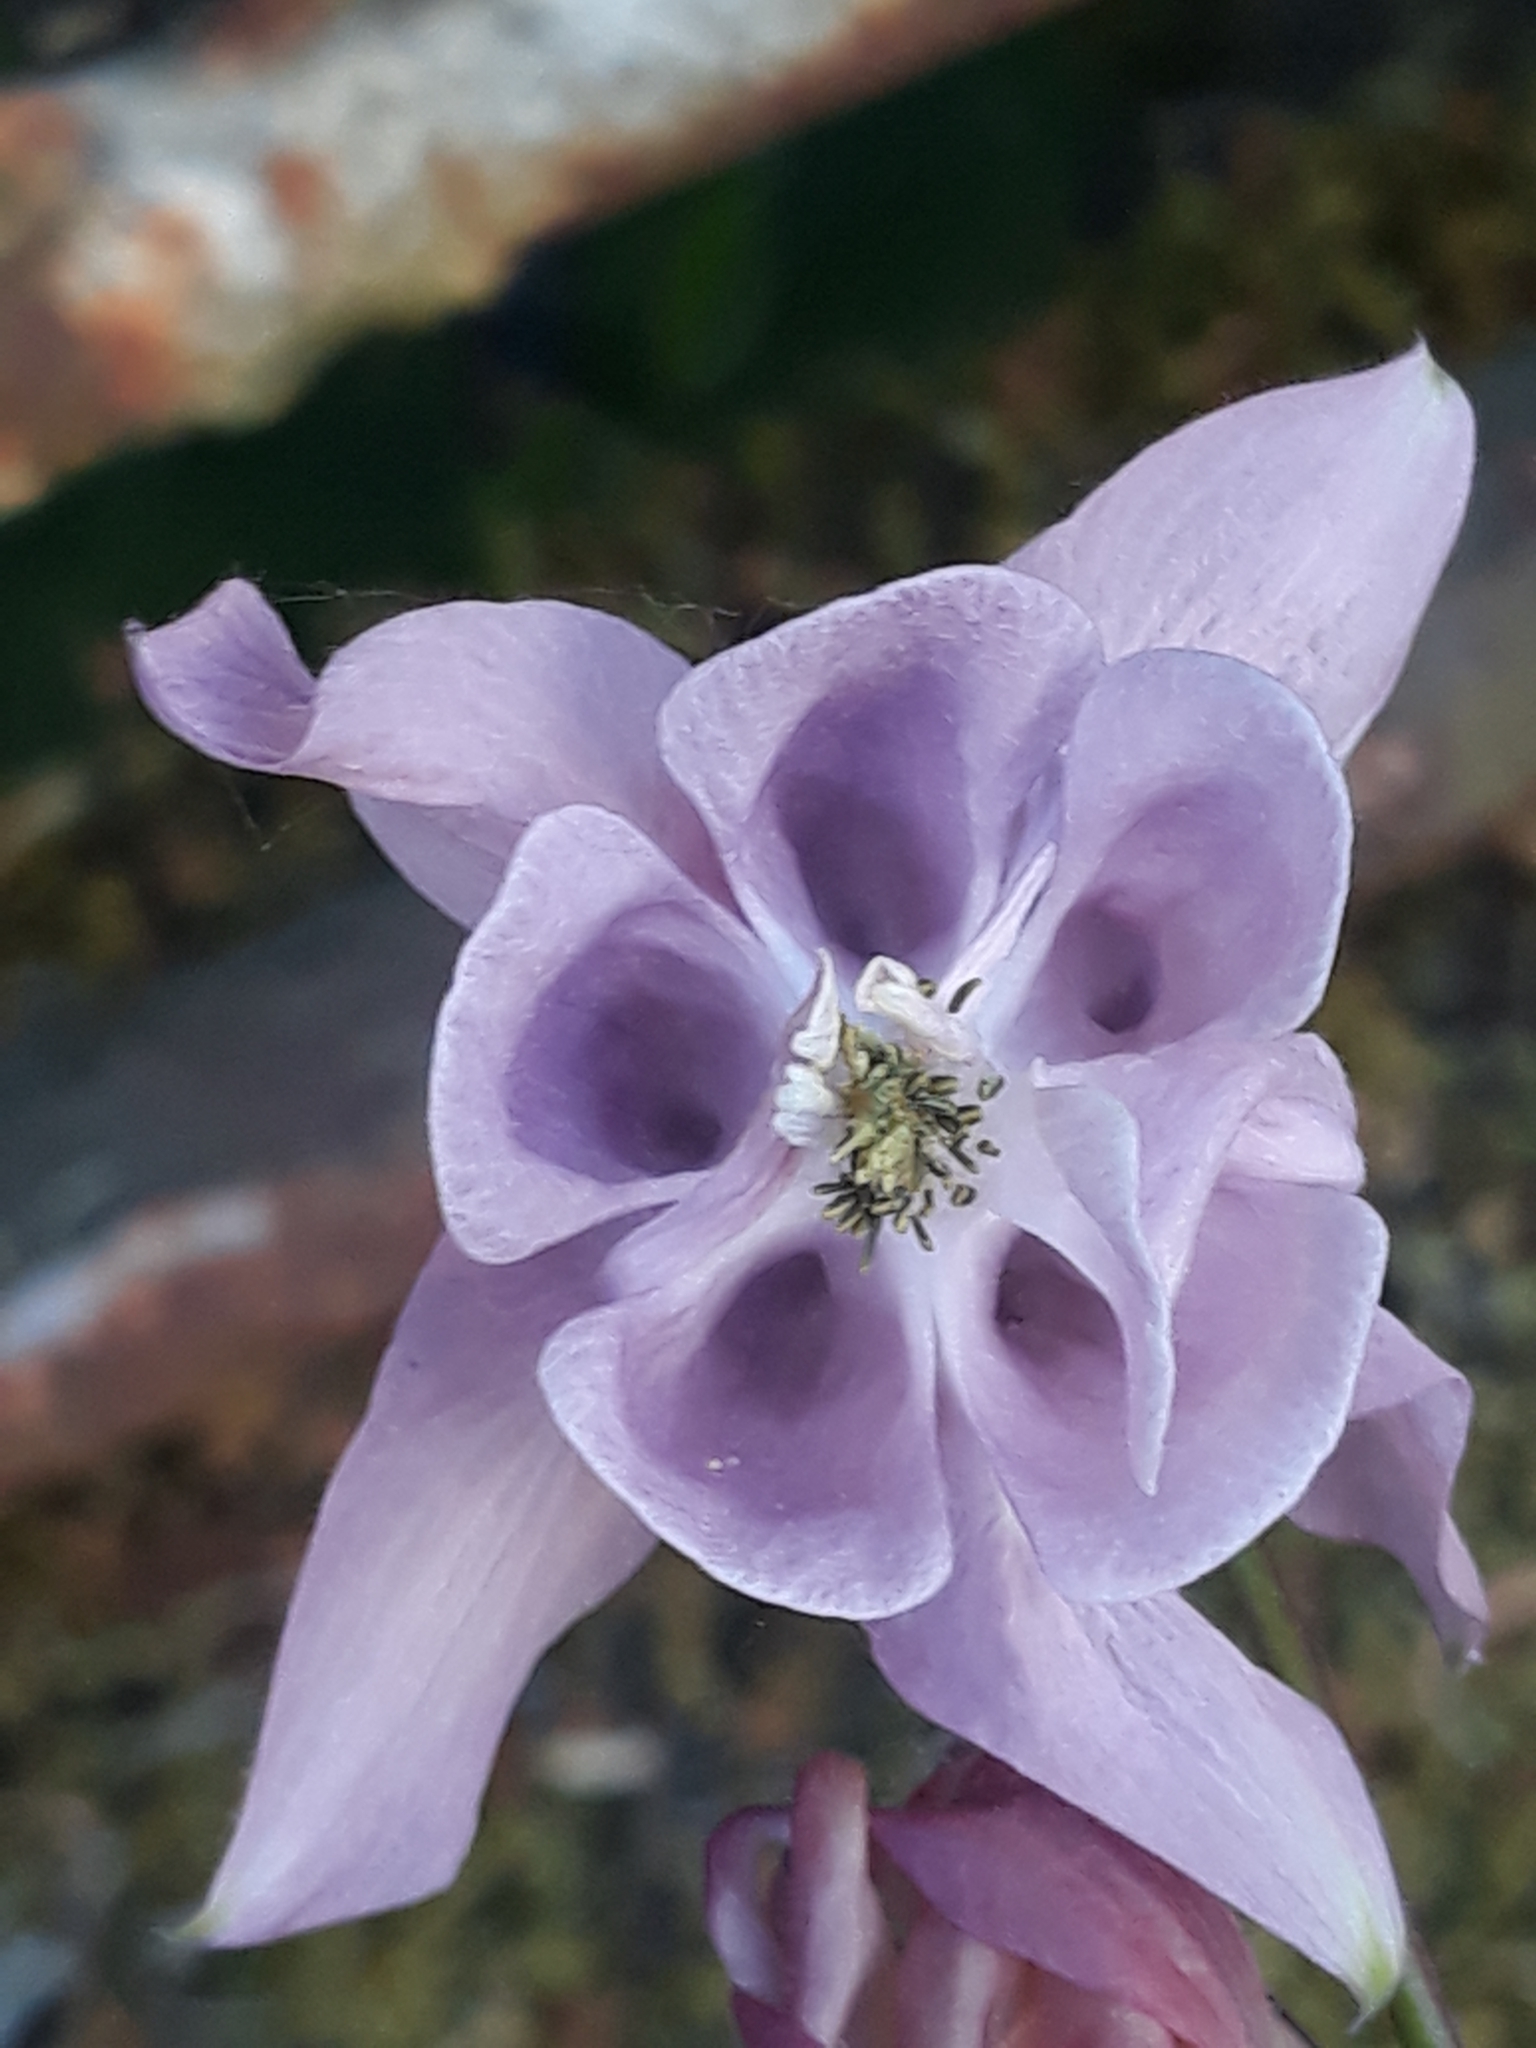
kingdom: Plantae
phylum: Tracheophyta
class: Magnoliopsida
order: Ranunculales
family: Ranunculaceae
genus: Aquilegia
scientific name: Aquilegia vulgaris
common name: Columbine
